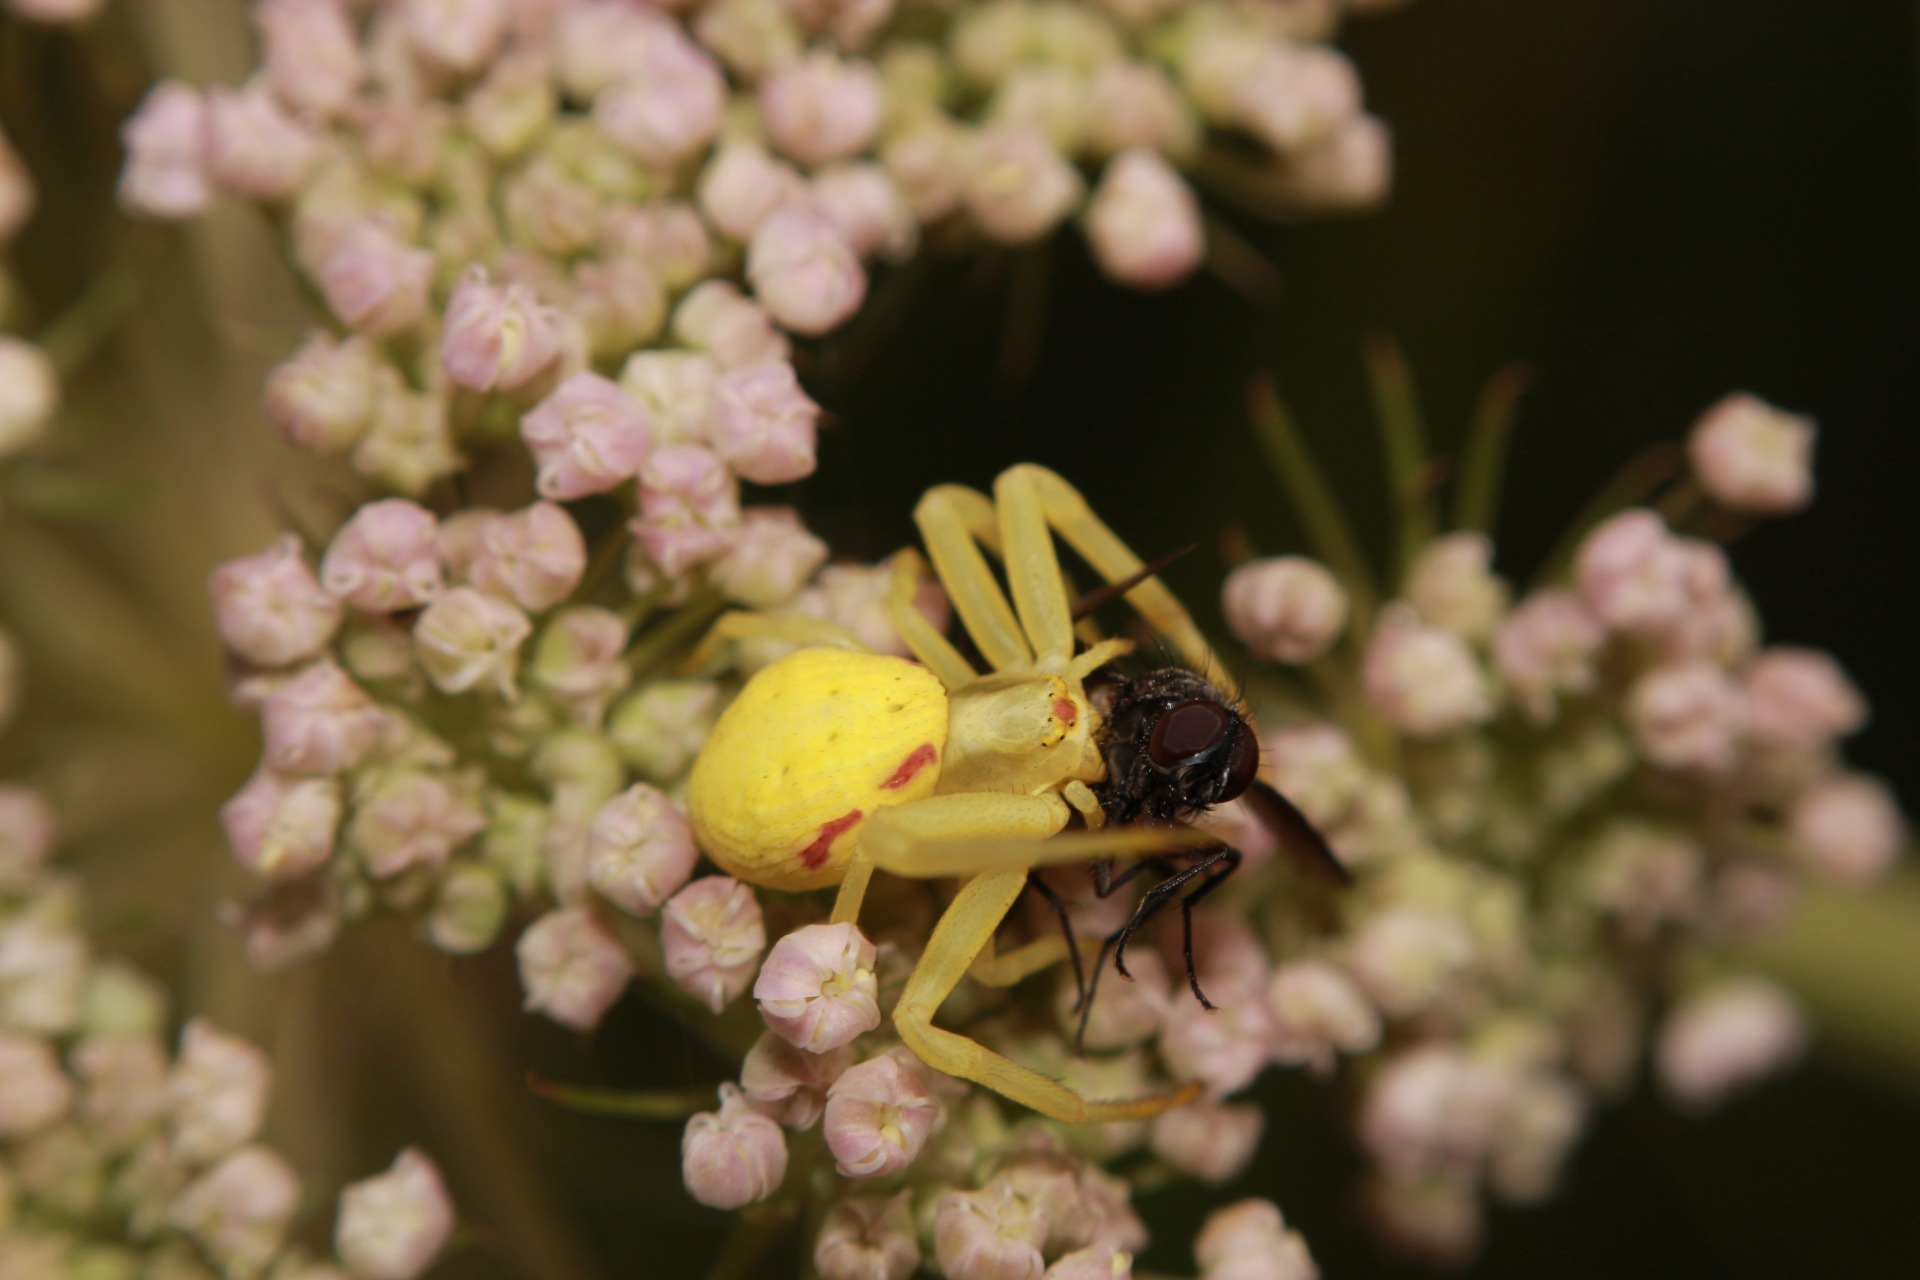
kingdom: Animalia
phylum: Arthropoda
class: Arachnida
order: Araneae
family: Thomisidae
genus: Misumena
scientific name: Misumena vatia
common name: Goldenrod crab spider
